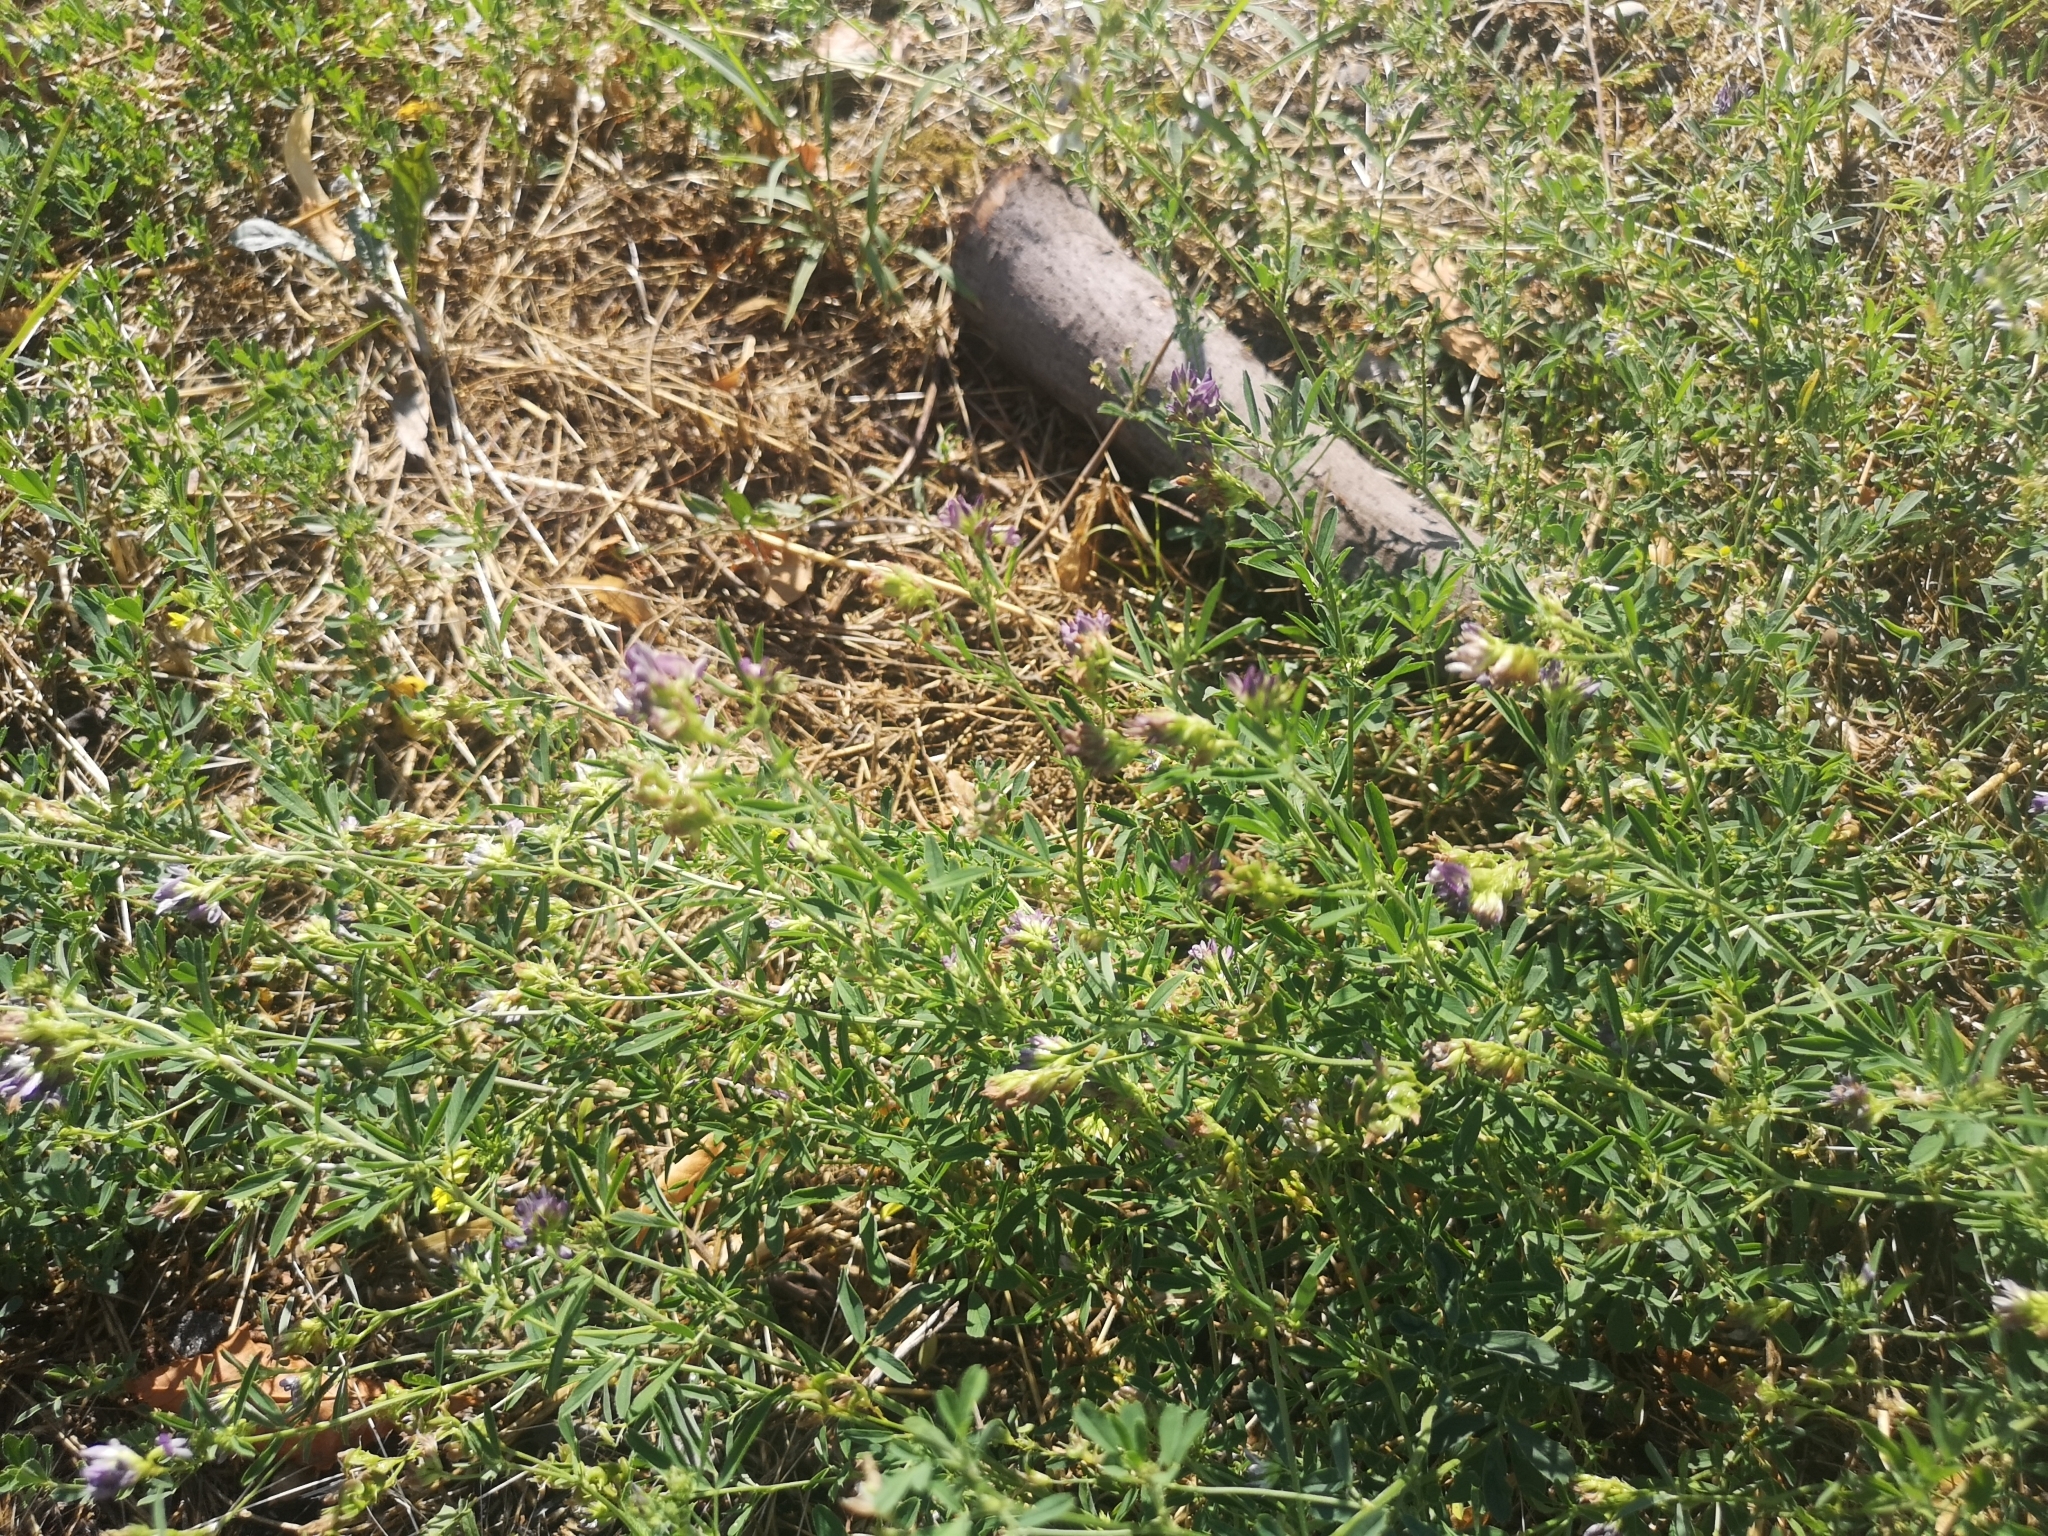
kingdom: Plantae
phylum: Tracheophyta
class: Magnoliopsida
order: Fabales
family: Fabaceae
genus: Medicago
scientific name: Medicago sativa
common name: Alfalfa
